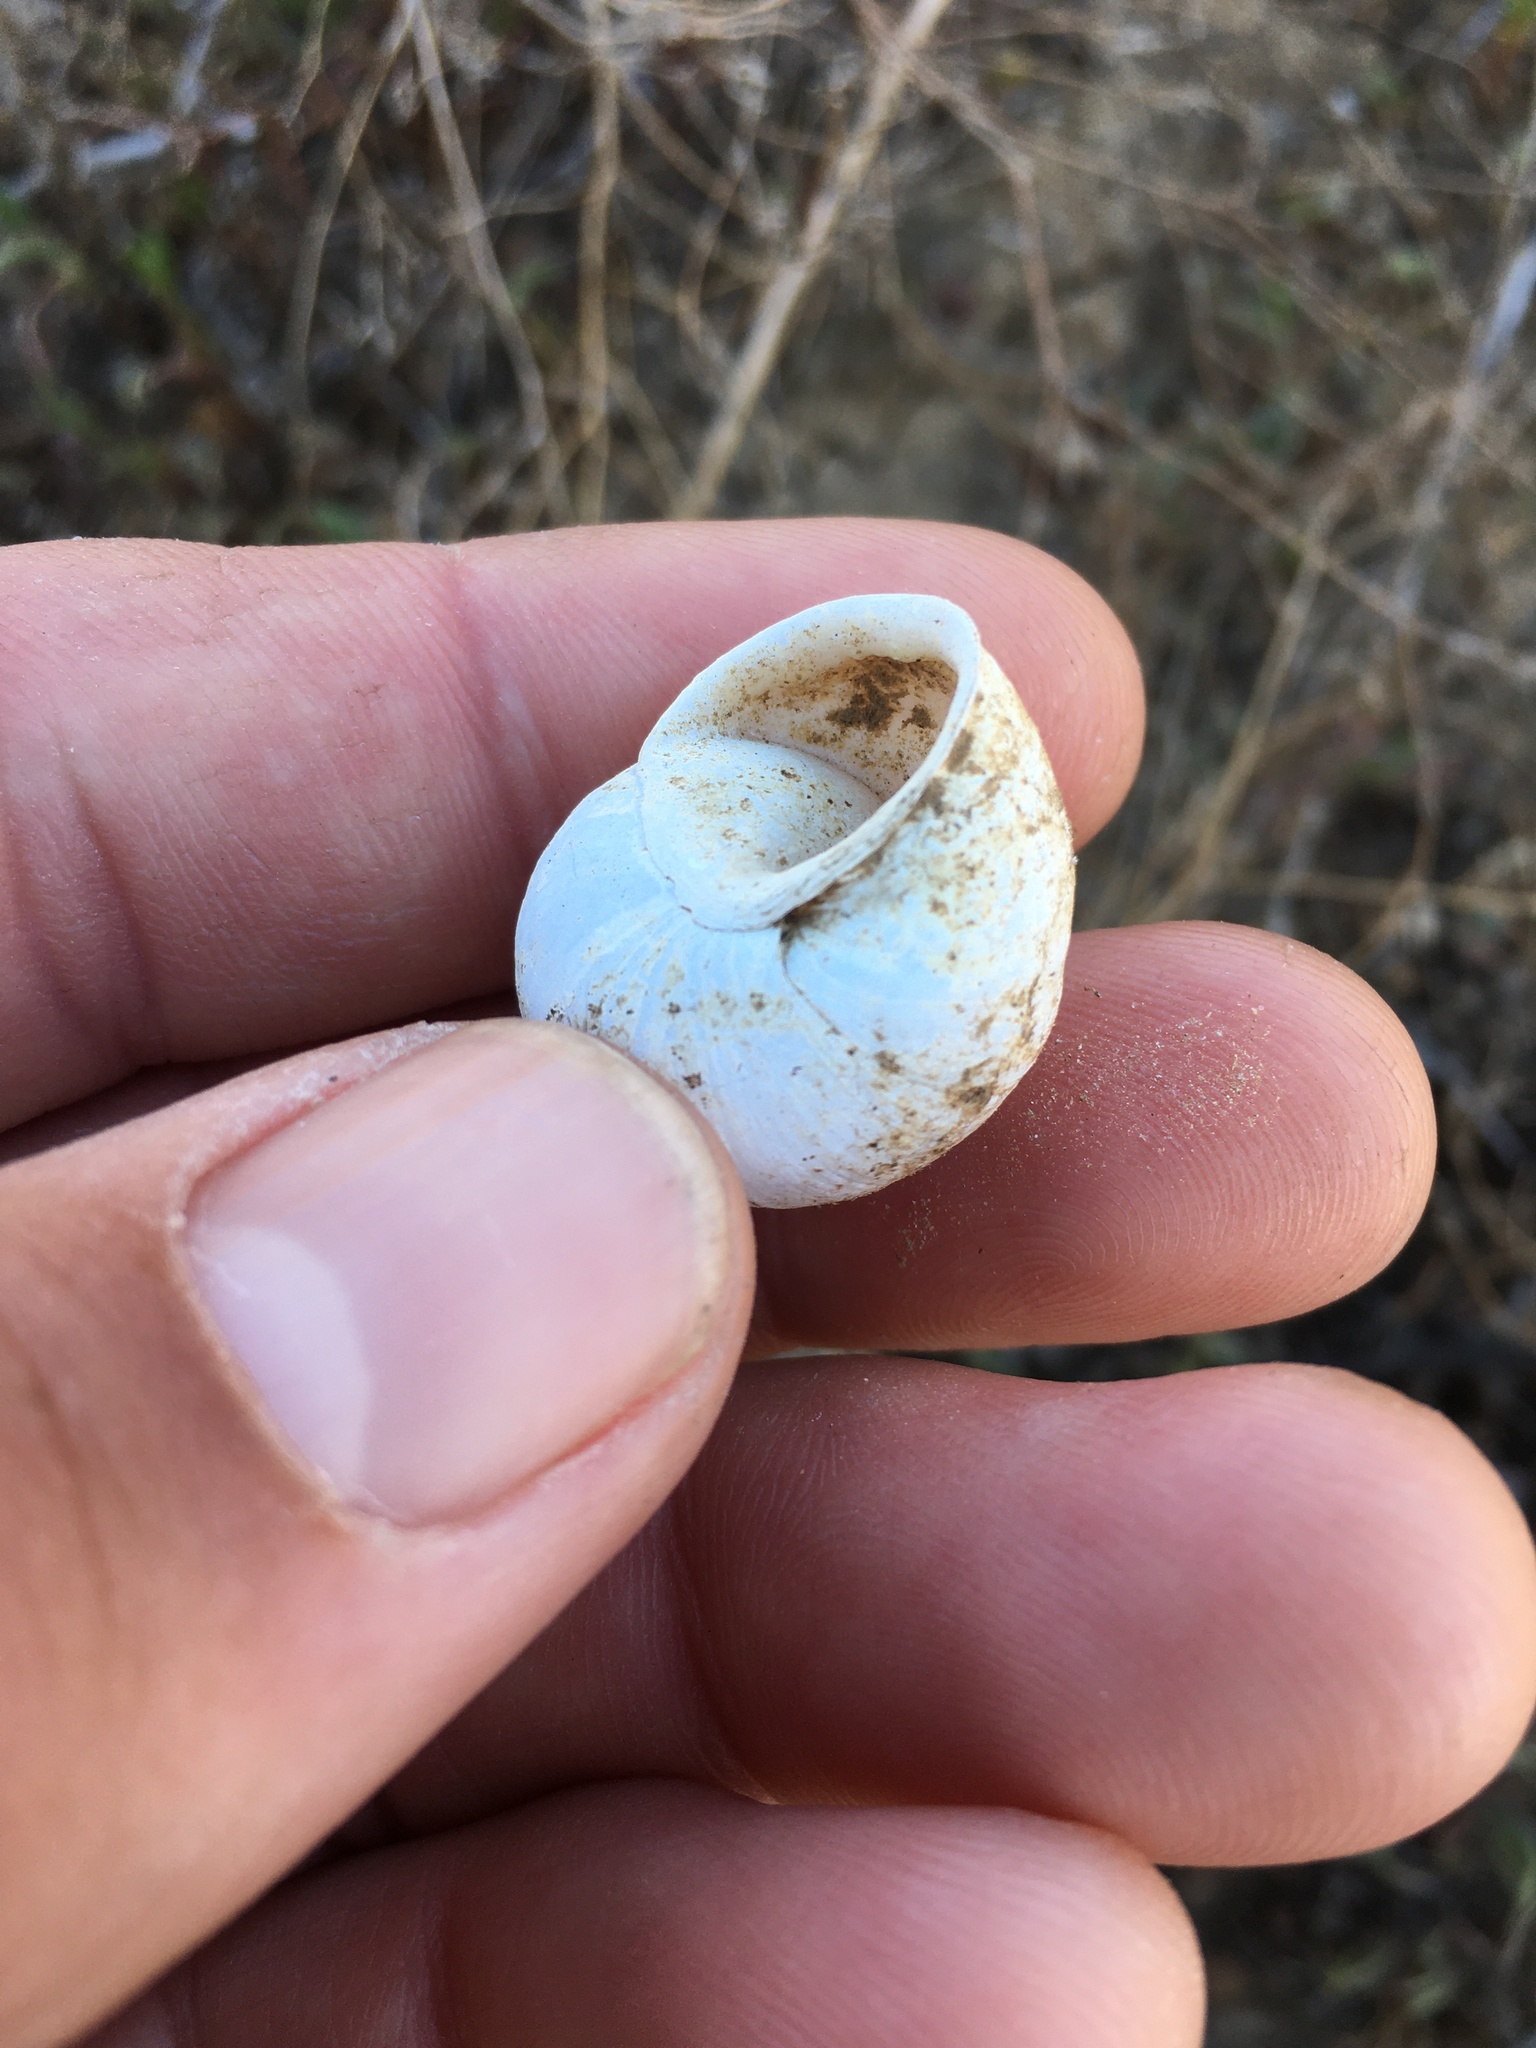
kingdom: Animalia
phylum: Mollusca
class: Gastropoda
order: Stylommatophora
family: Xanthonychidae
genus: Xerarionta
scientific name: Xerarionta tryoni
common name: Bicolor cactus snail
